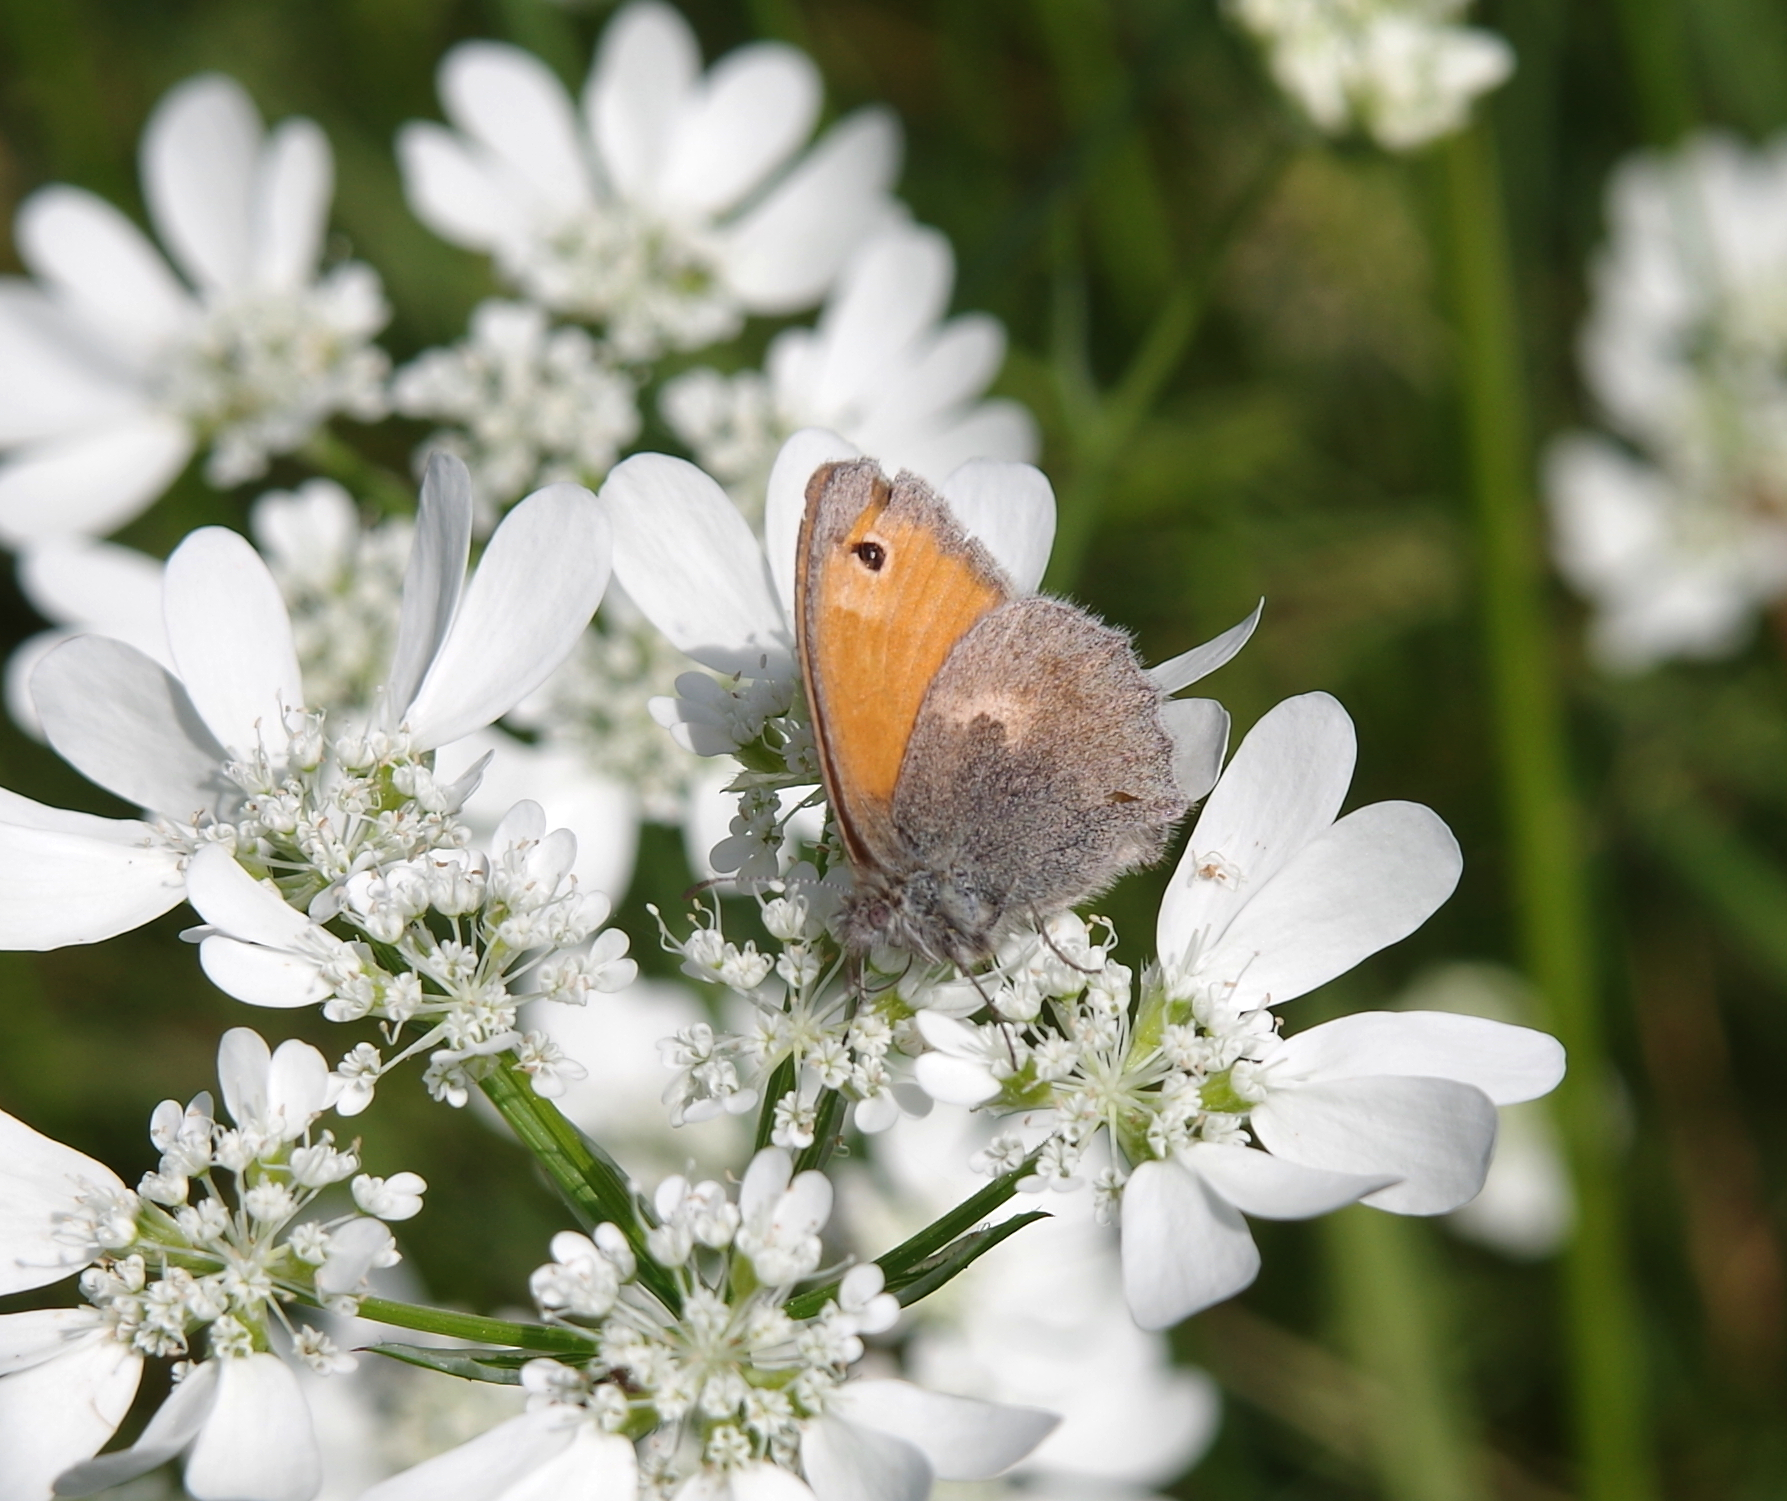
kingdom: Animalia
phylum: Arthropoda
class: Insecta
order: Lepidoptera
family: Nymphalidae
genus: Coenonympha
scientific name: Coenonympha pamphilus
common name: Small heath
